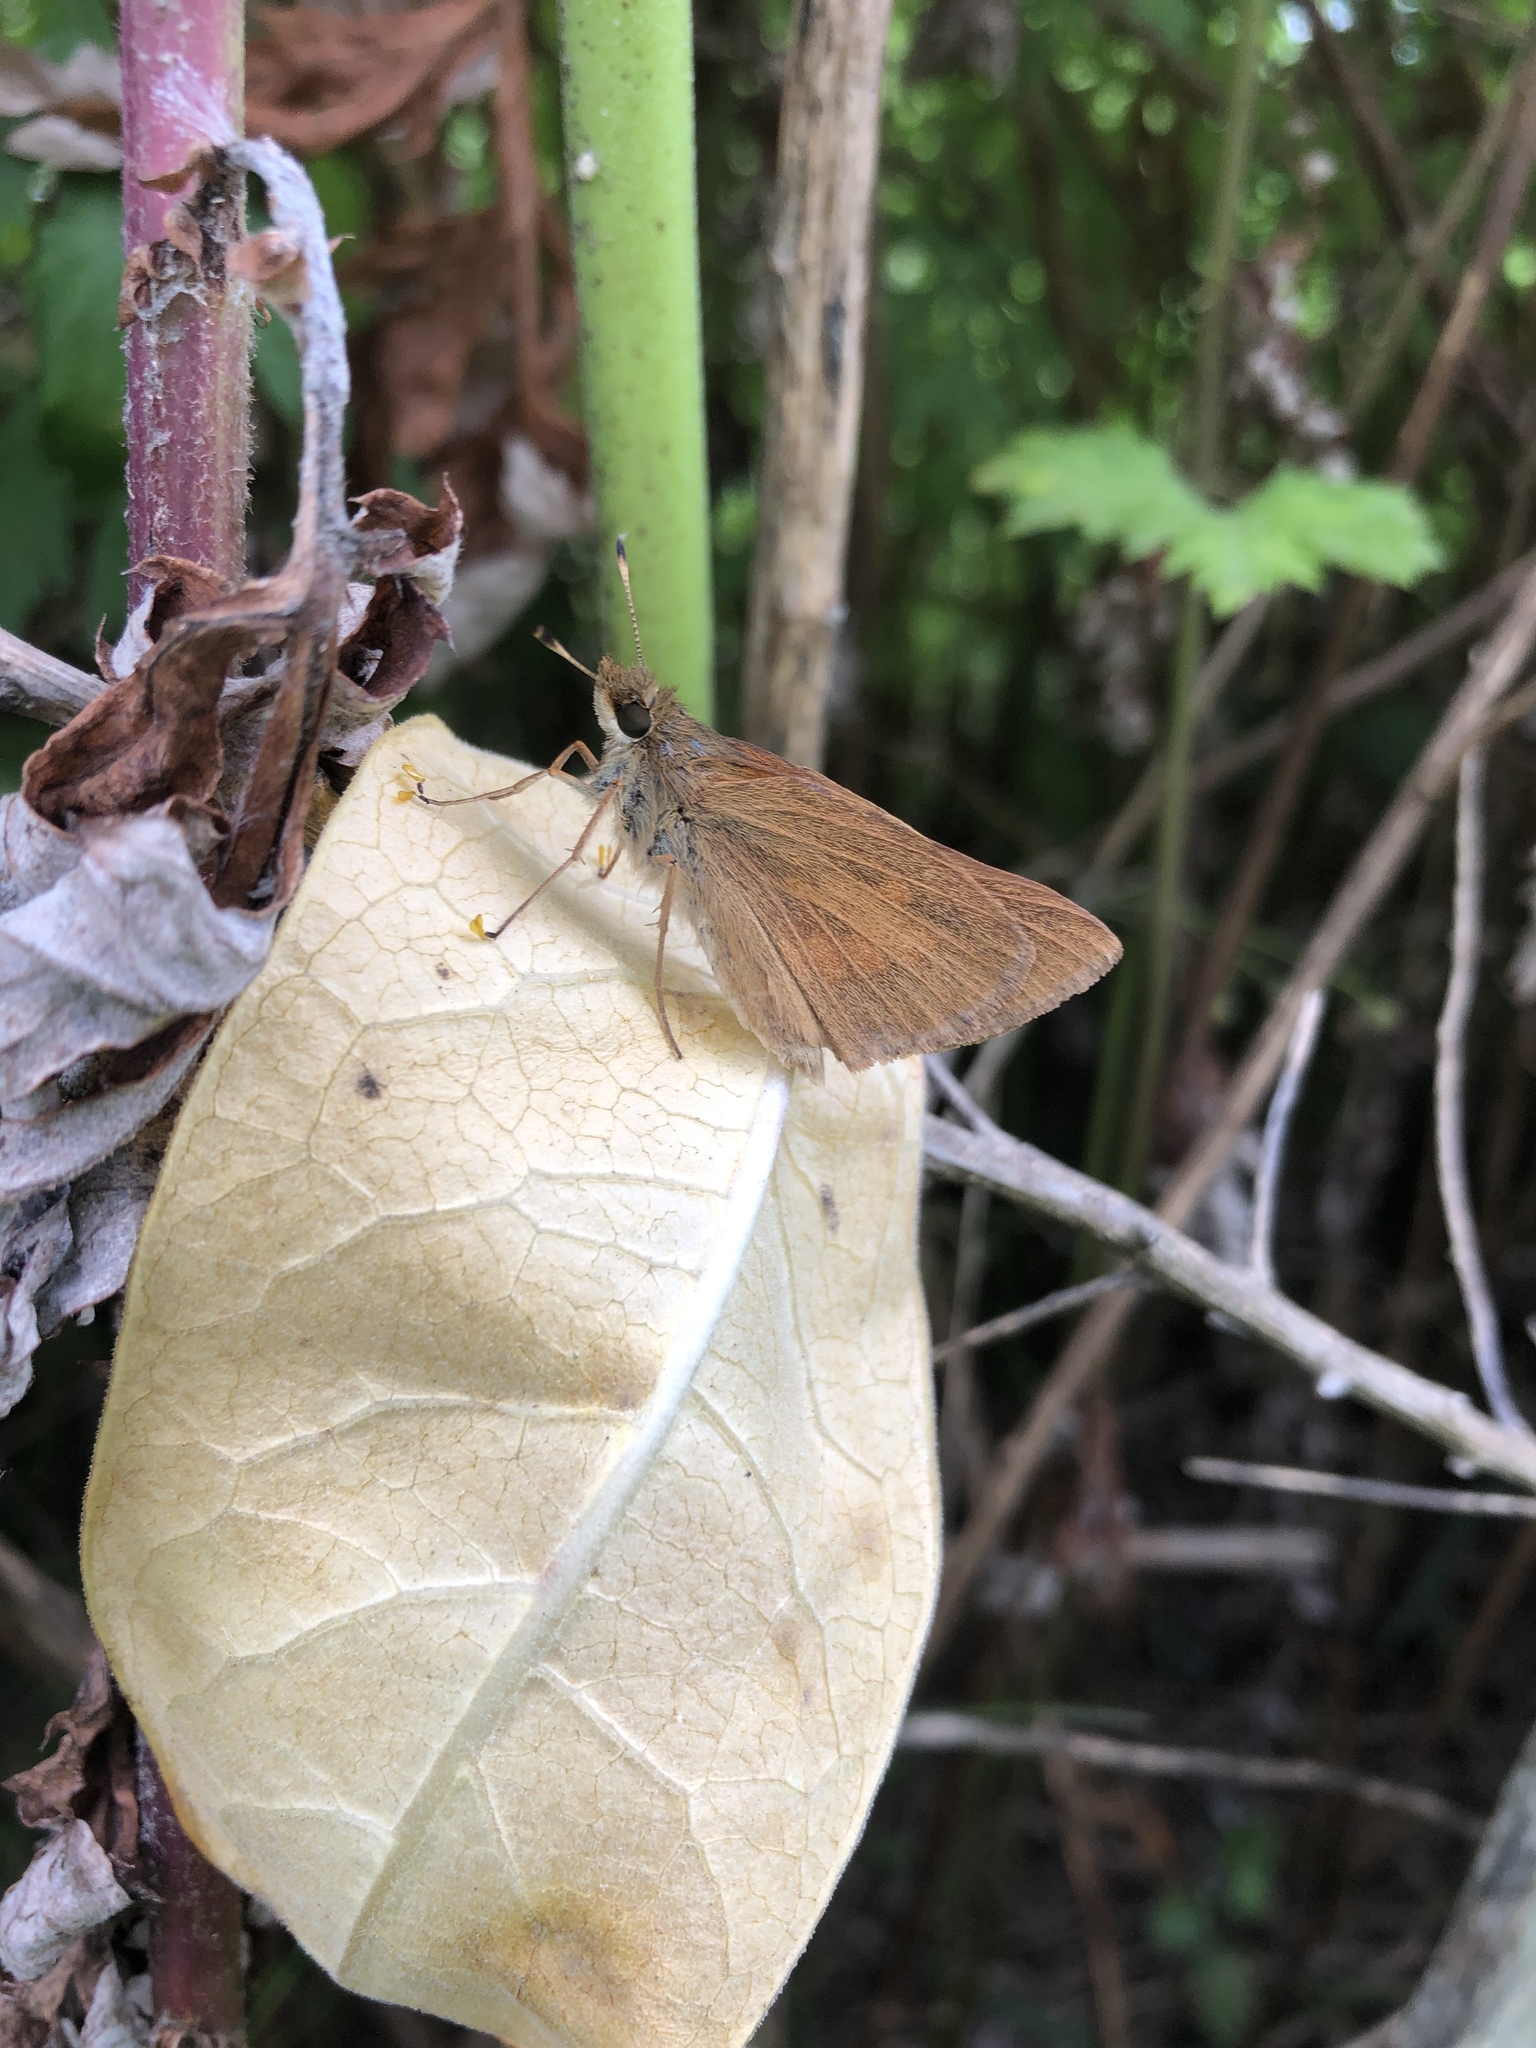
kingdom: Animalia
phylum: Arthropoda
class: Insecta
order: Lepidoptera
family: Hesperiidae
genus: Poanes
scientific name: Poanes viator
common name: Broad-winged skipper
